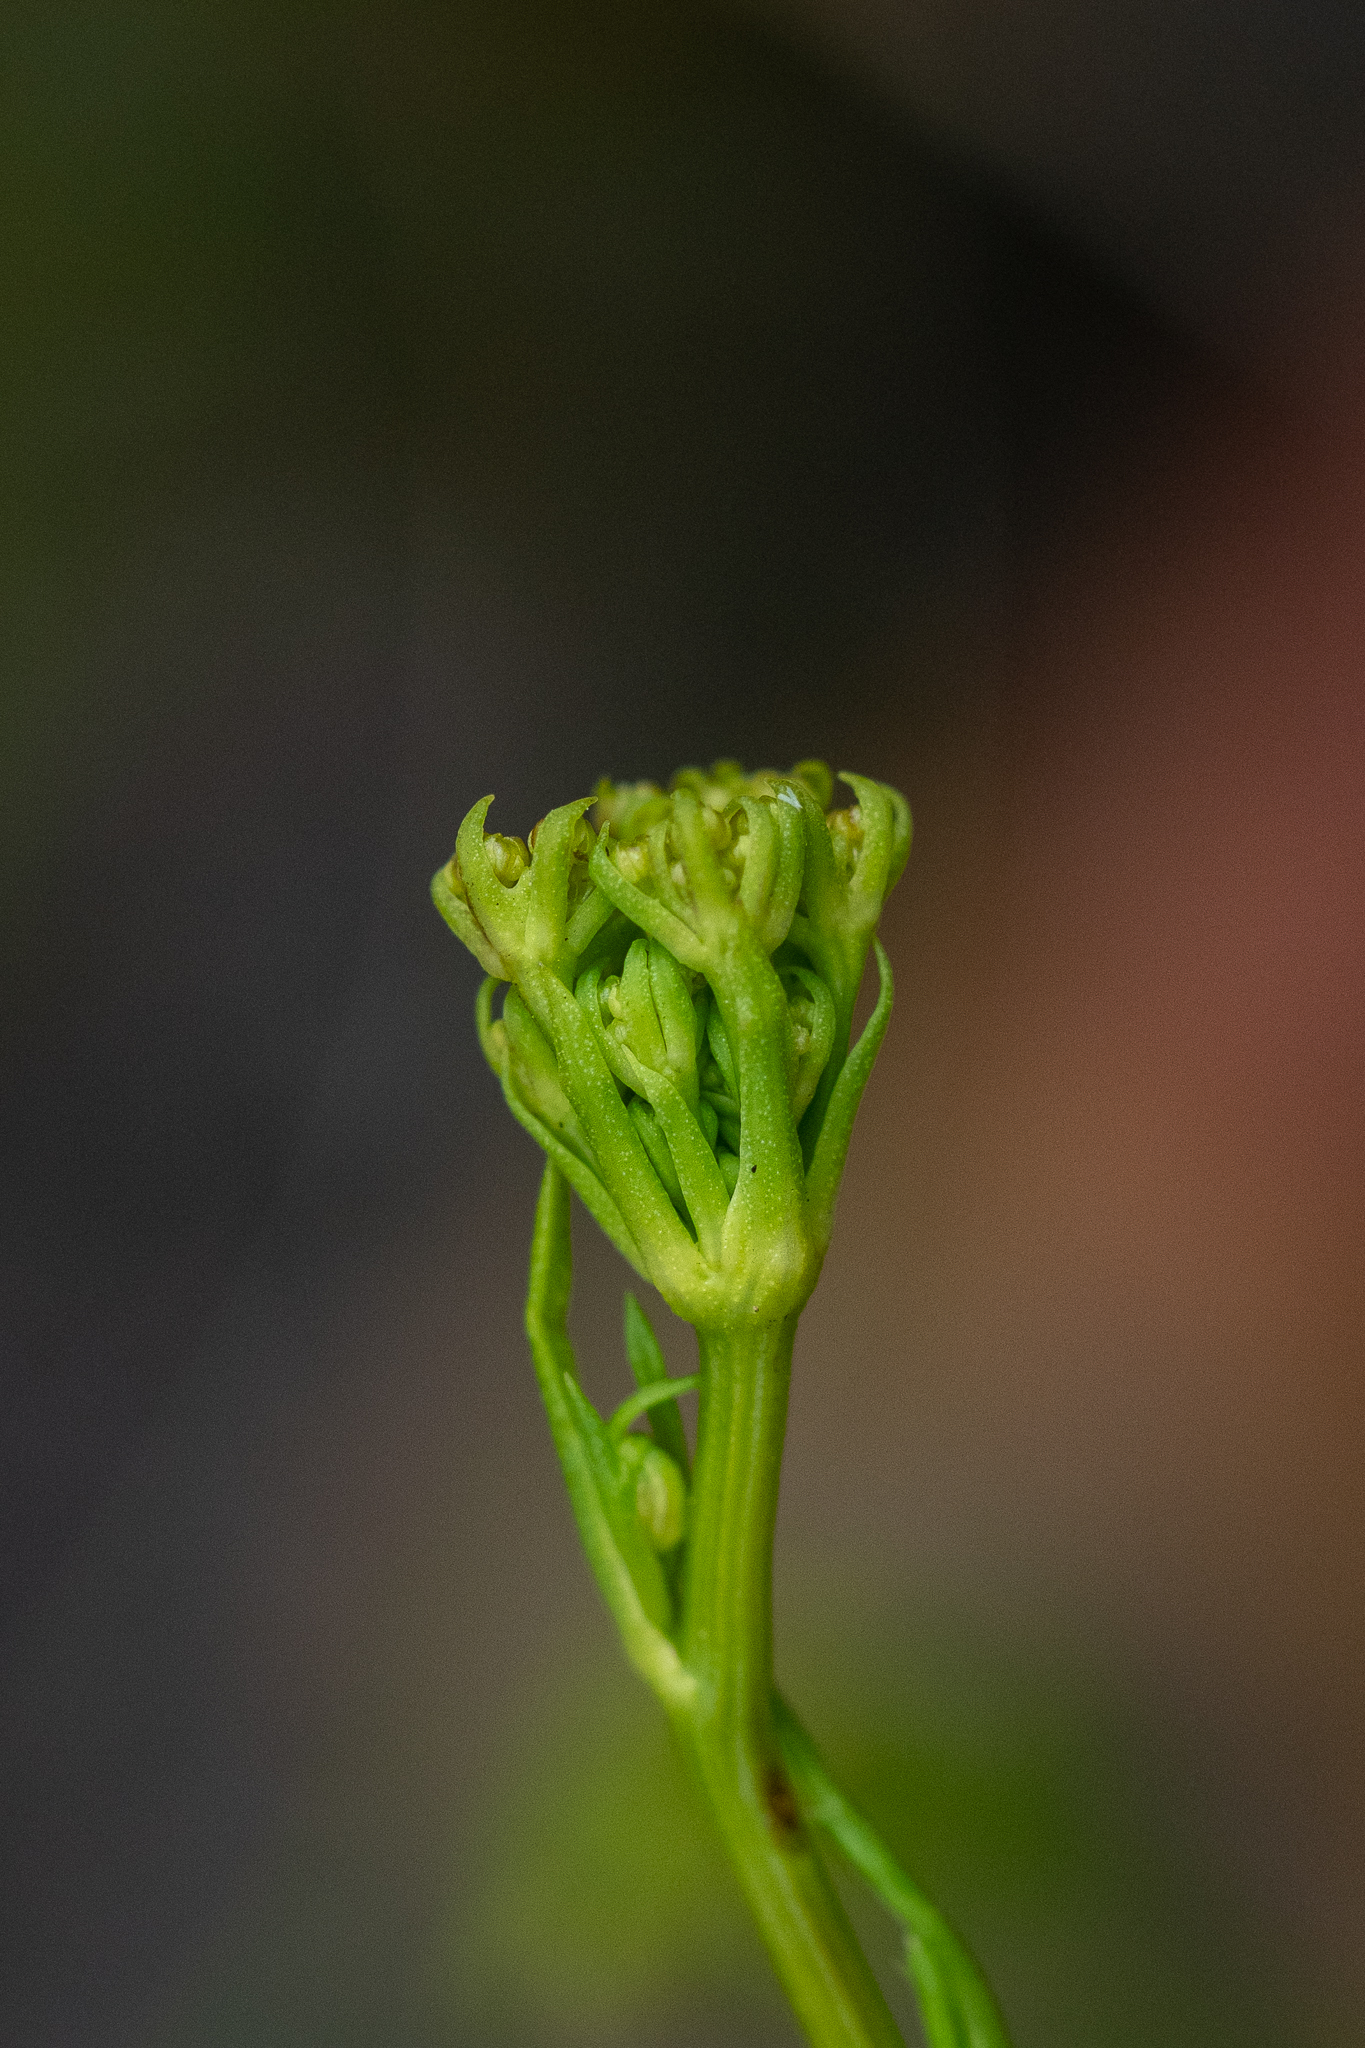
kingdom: Plantae
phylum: Tracheophyta
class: Magnoliopsida
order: Apiales
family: Apiaceae
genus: Glia
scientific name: Glia prolifera
